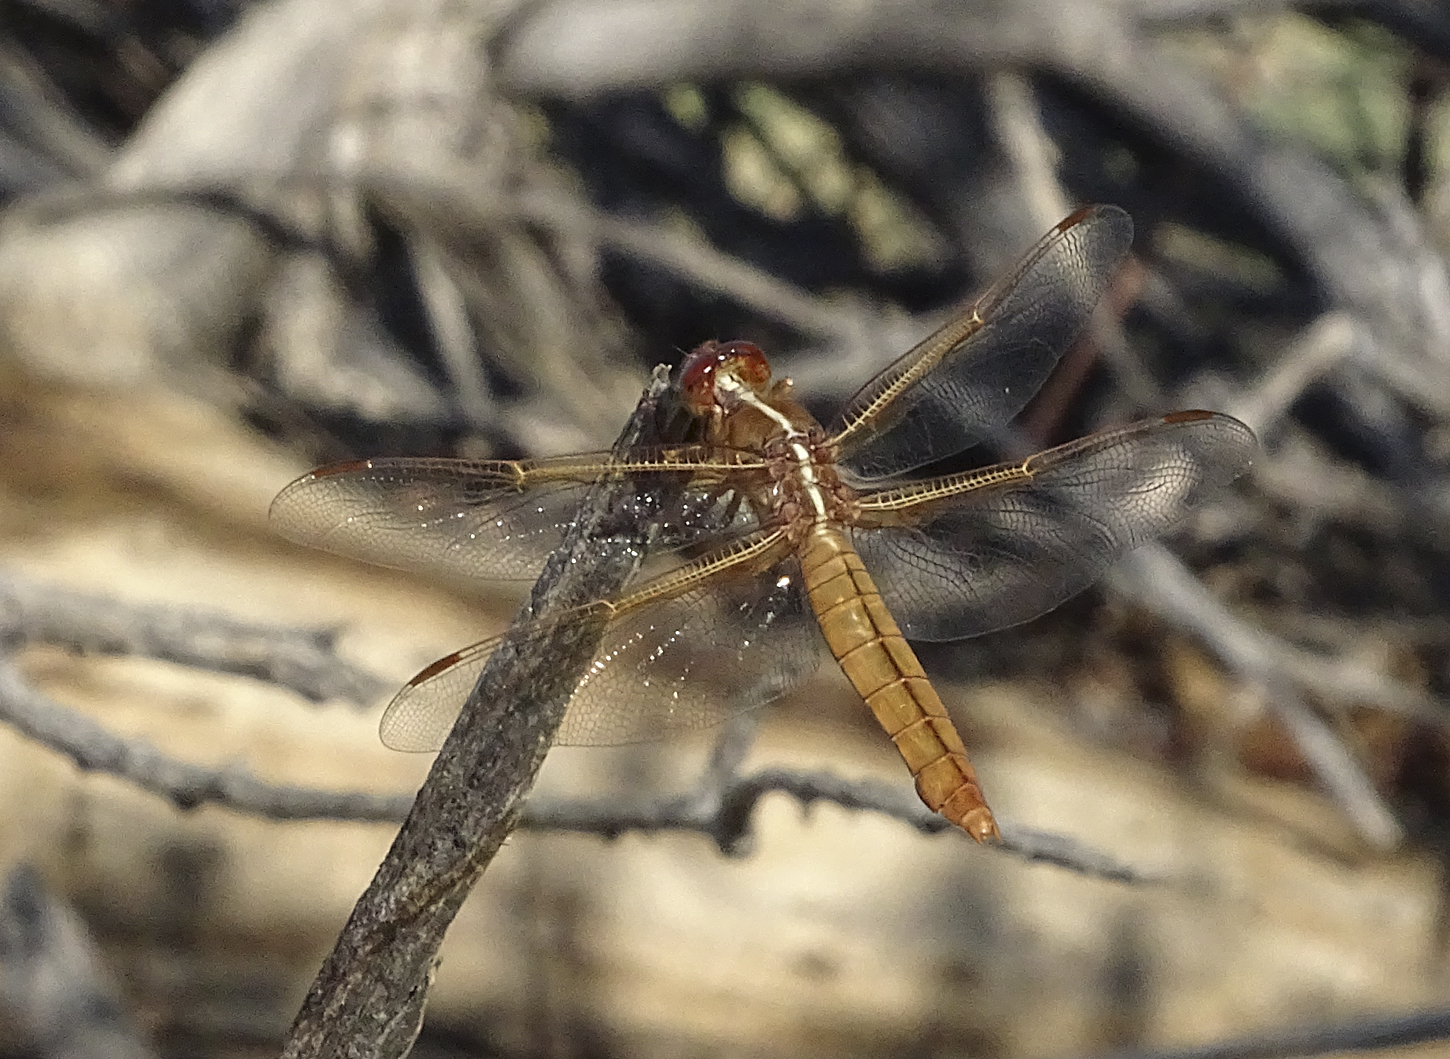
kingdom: Animalia
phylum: Arthropoda
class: Insecta
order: Odonata
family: Libellulidae
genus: Libellula
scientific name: Libellula saturata
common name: Flame skimmer
